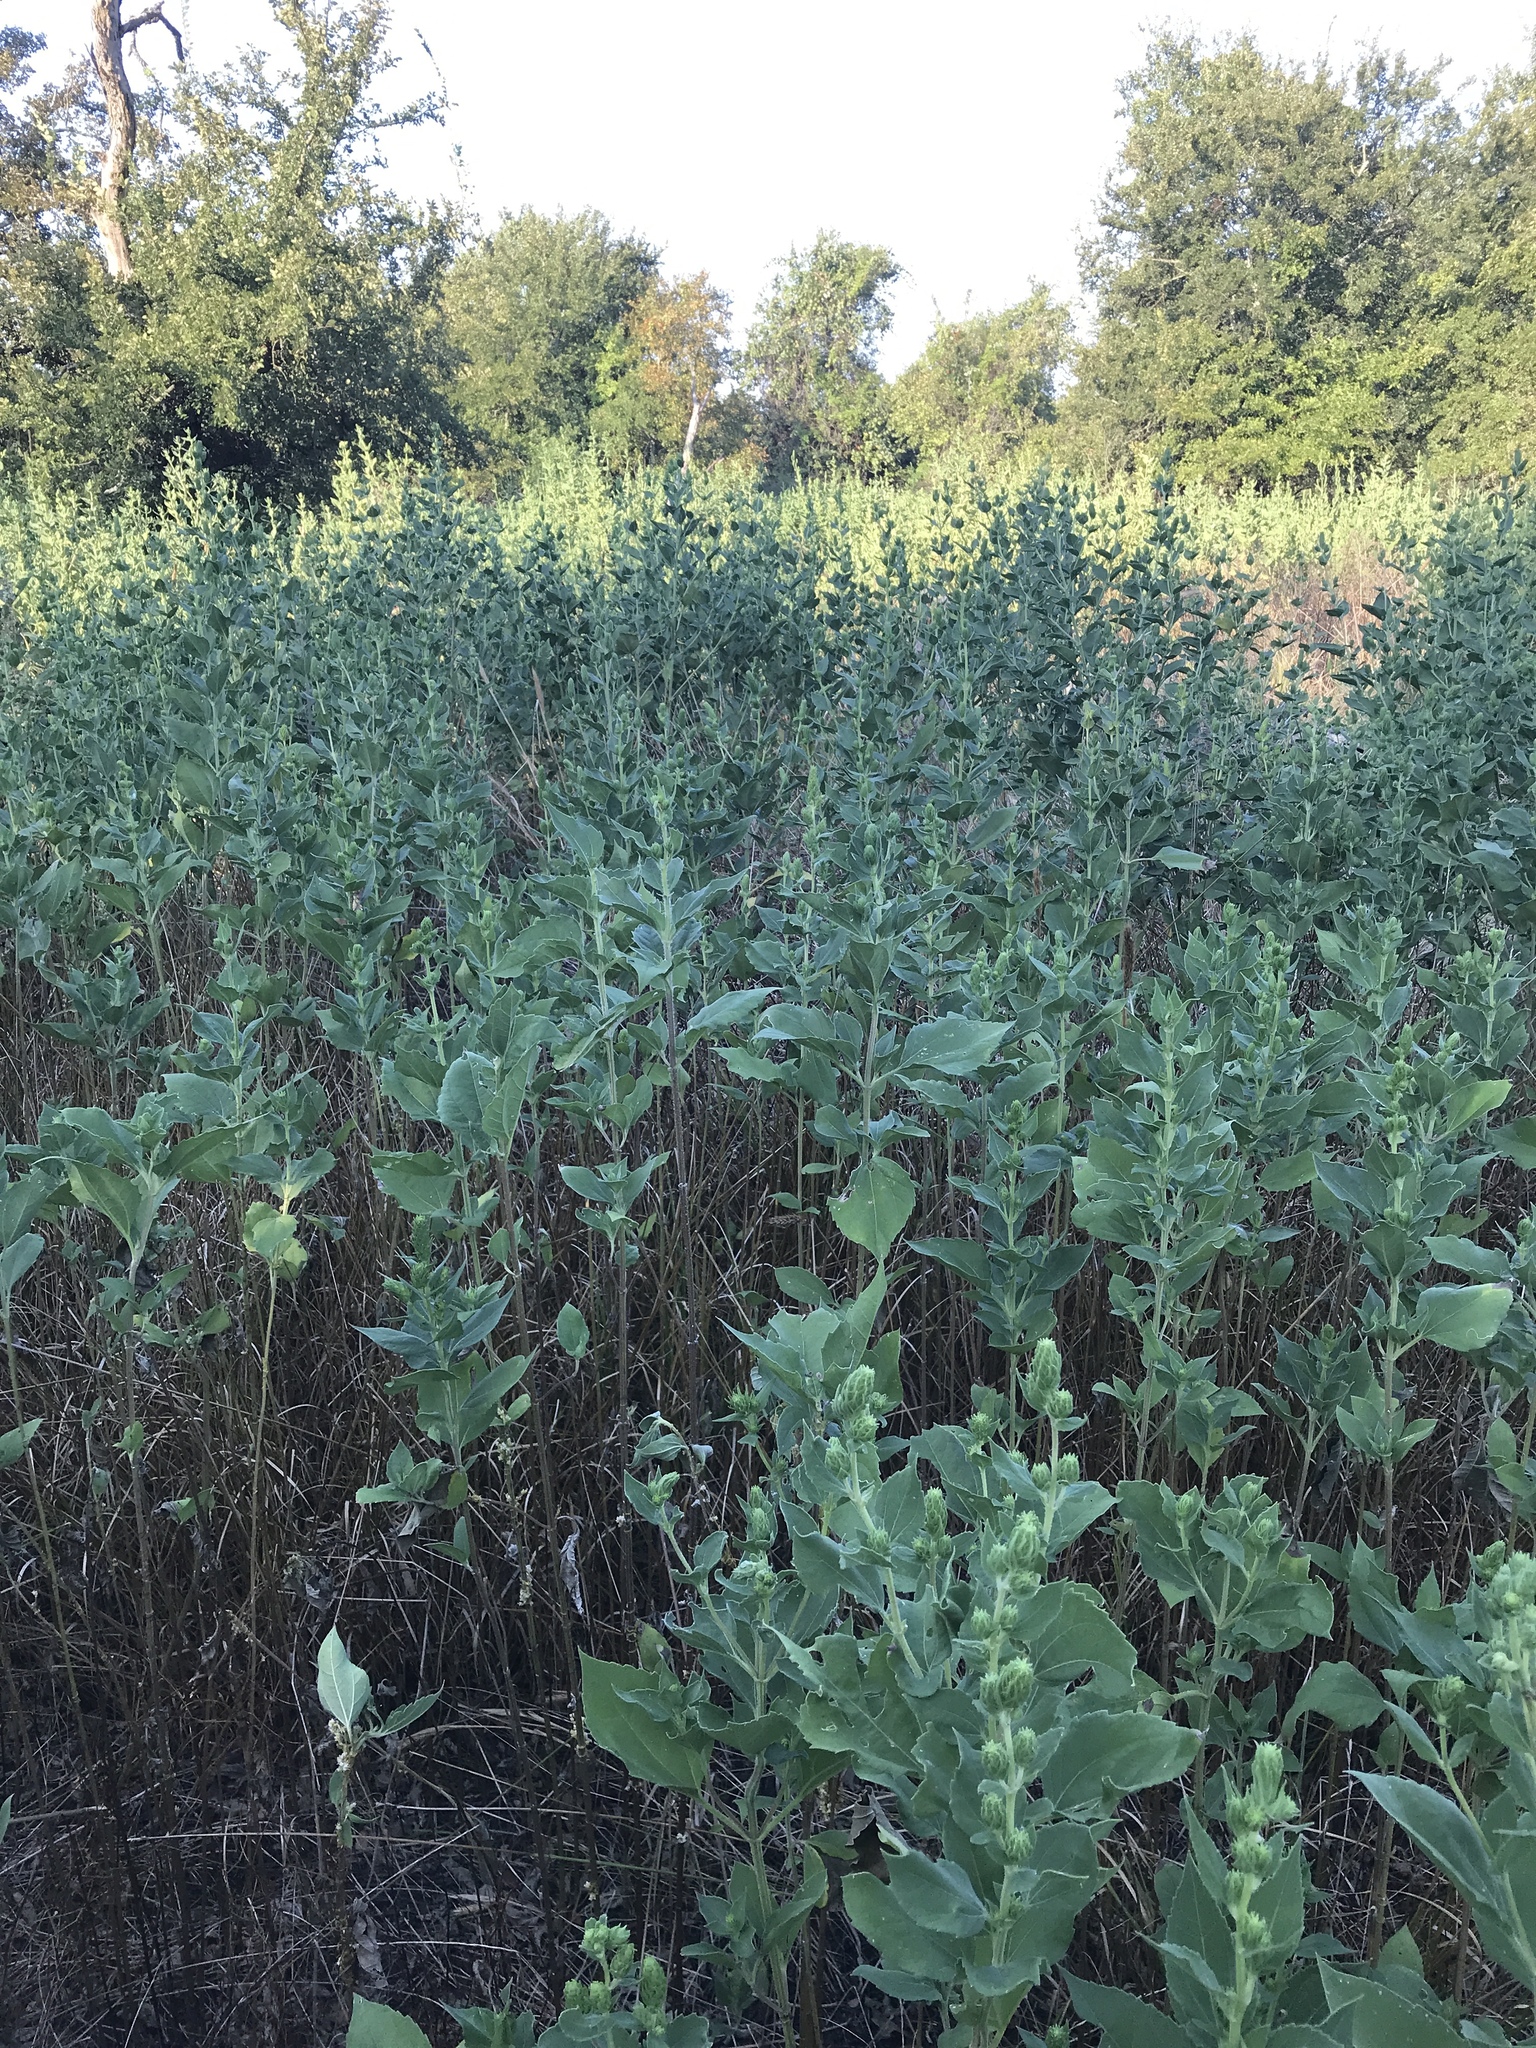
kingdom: Plantae
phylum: Tracheophyta
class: Magnoliopsida
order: Asterales
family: Asteraceae
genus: Iva
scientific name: Iva annua
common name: Marsh-elder
